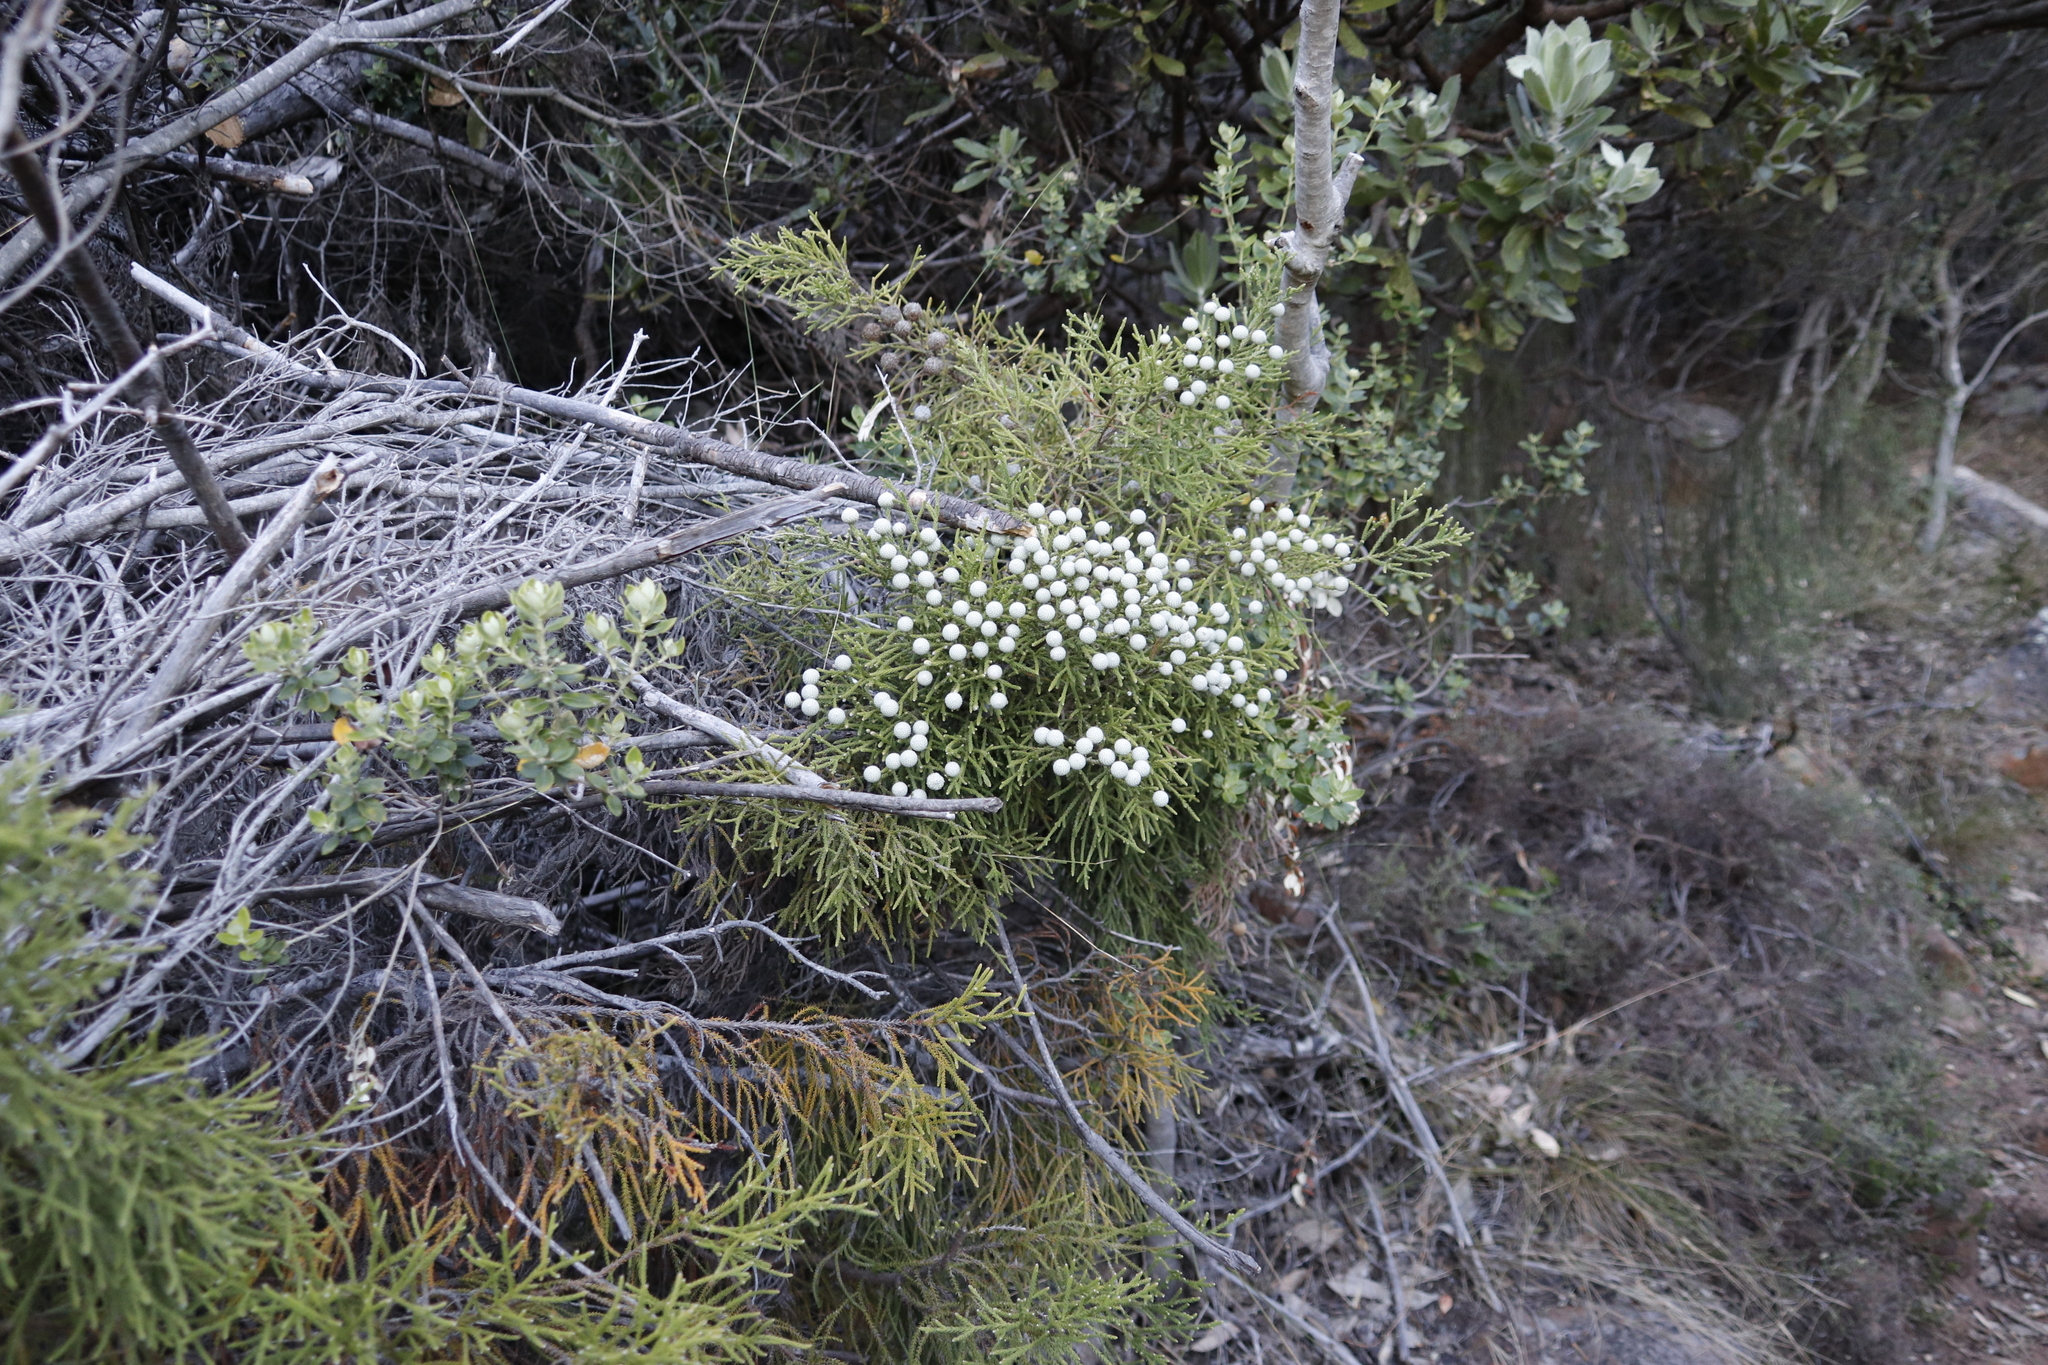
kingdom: Plantae
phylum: Tracheophyta
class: Magnoliopsida
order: Bruniales
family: Bruniaceae
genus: Brunia
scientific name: Brunia noduliflora
